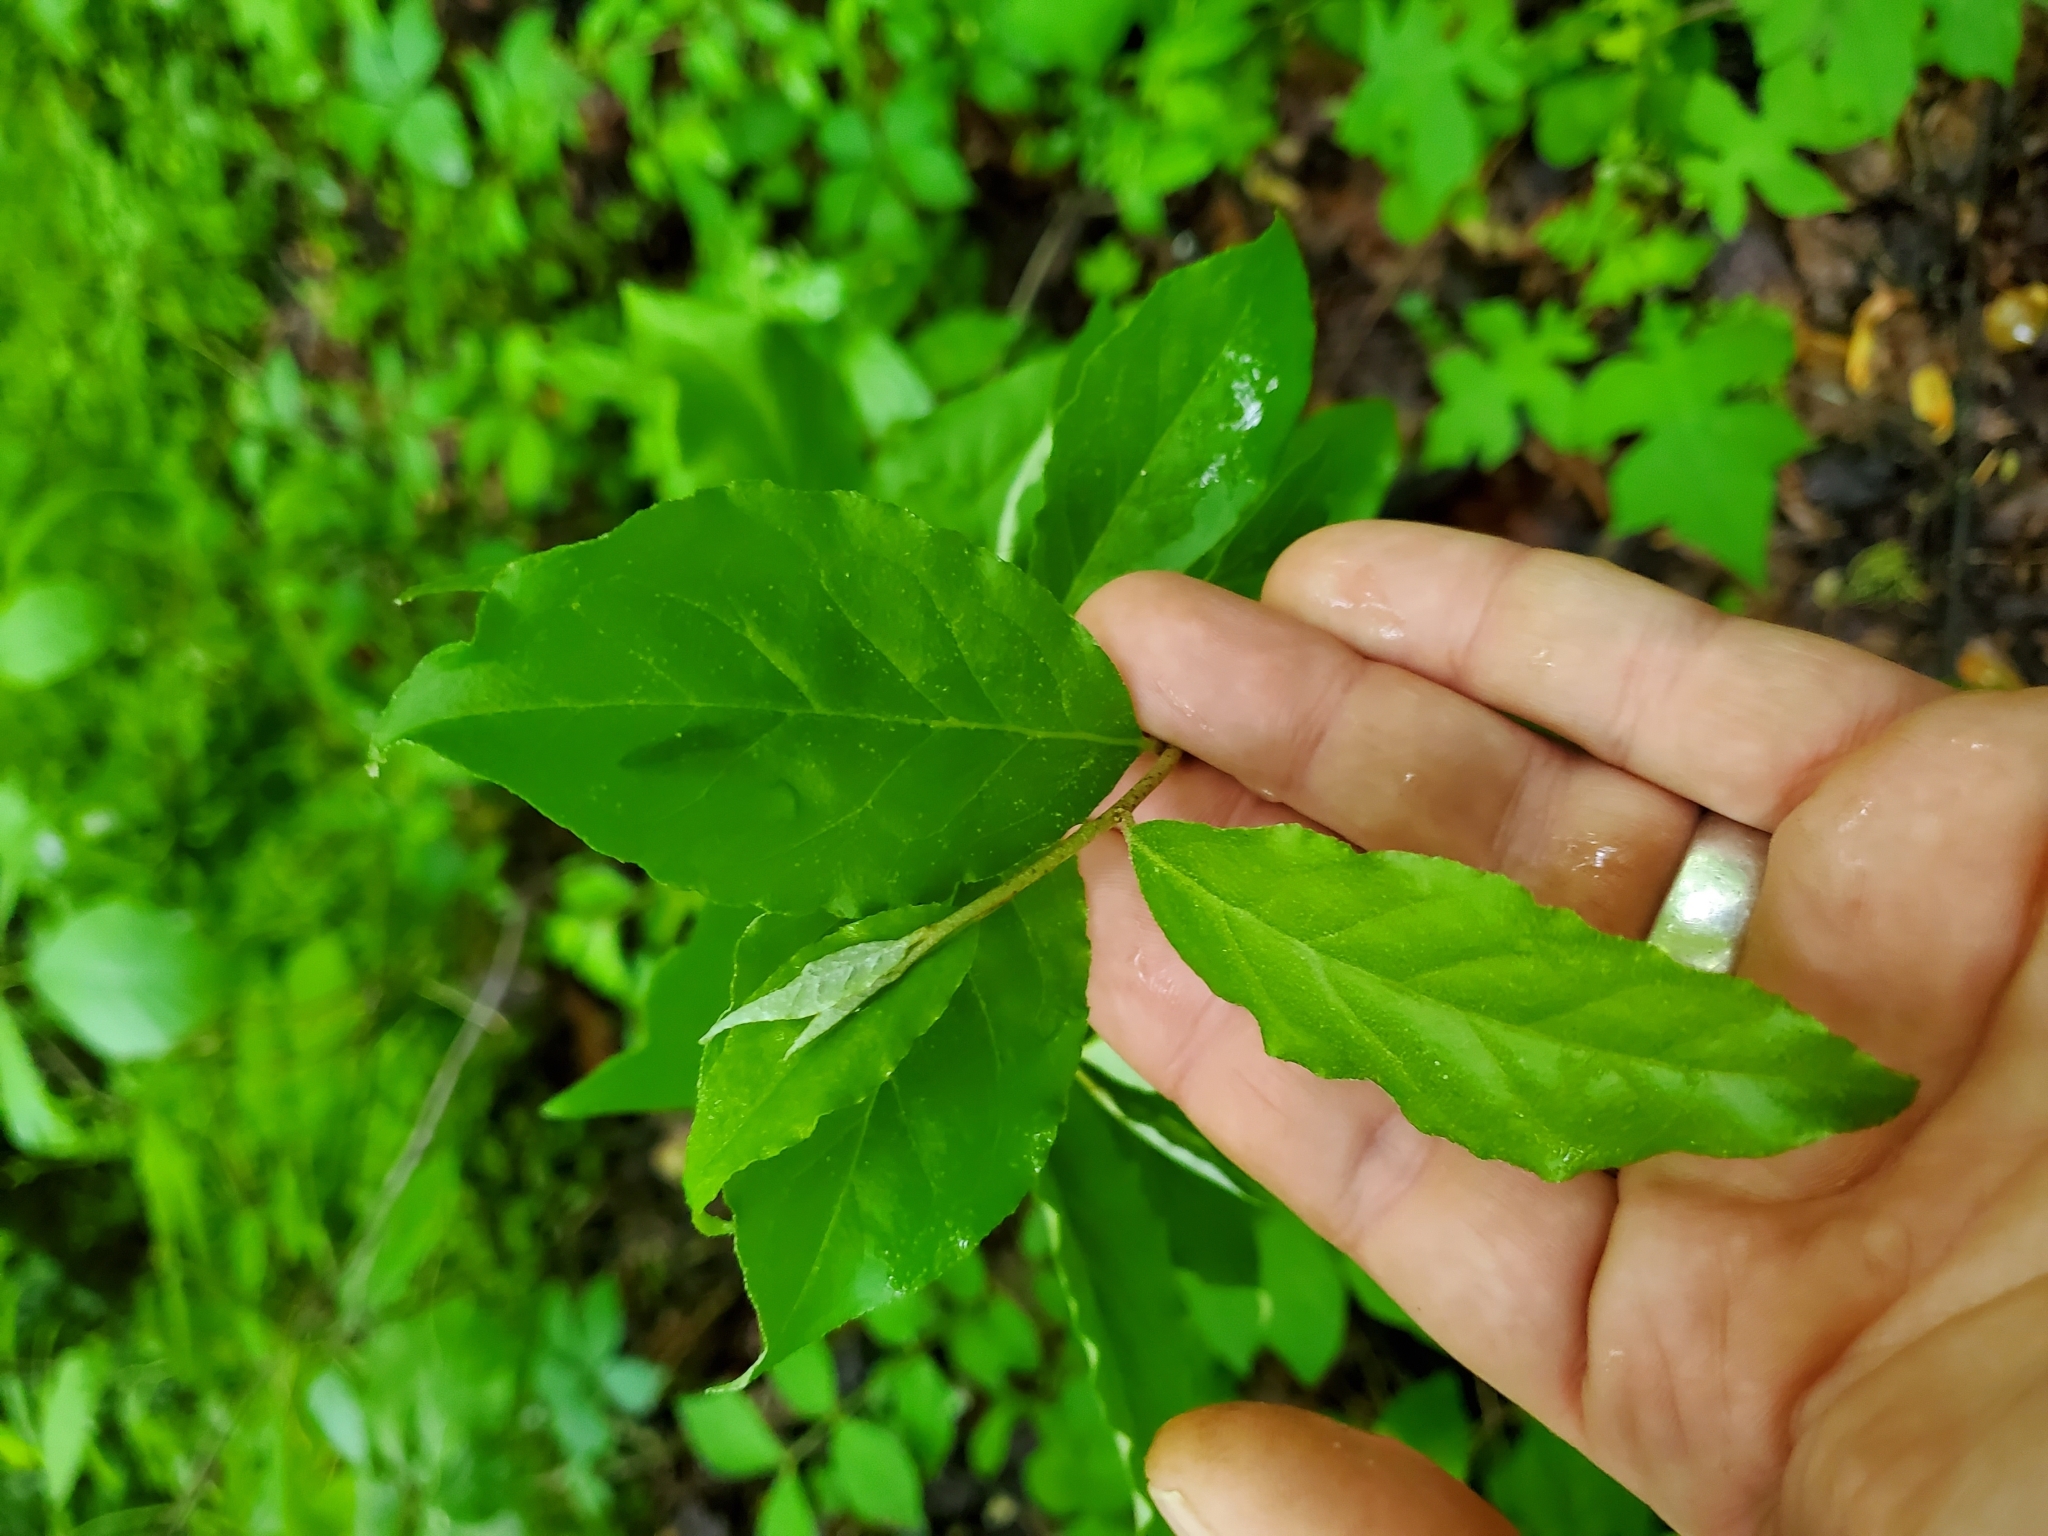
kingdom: Plantae
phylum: Tracheophyta
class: Magnoliopsida
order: Rosales
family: Elaeagnaceae
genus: Elaeagnus
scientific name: Elaeagnus umbellata
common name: Autumn olive
